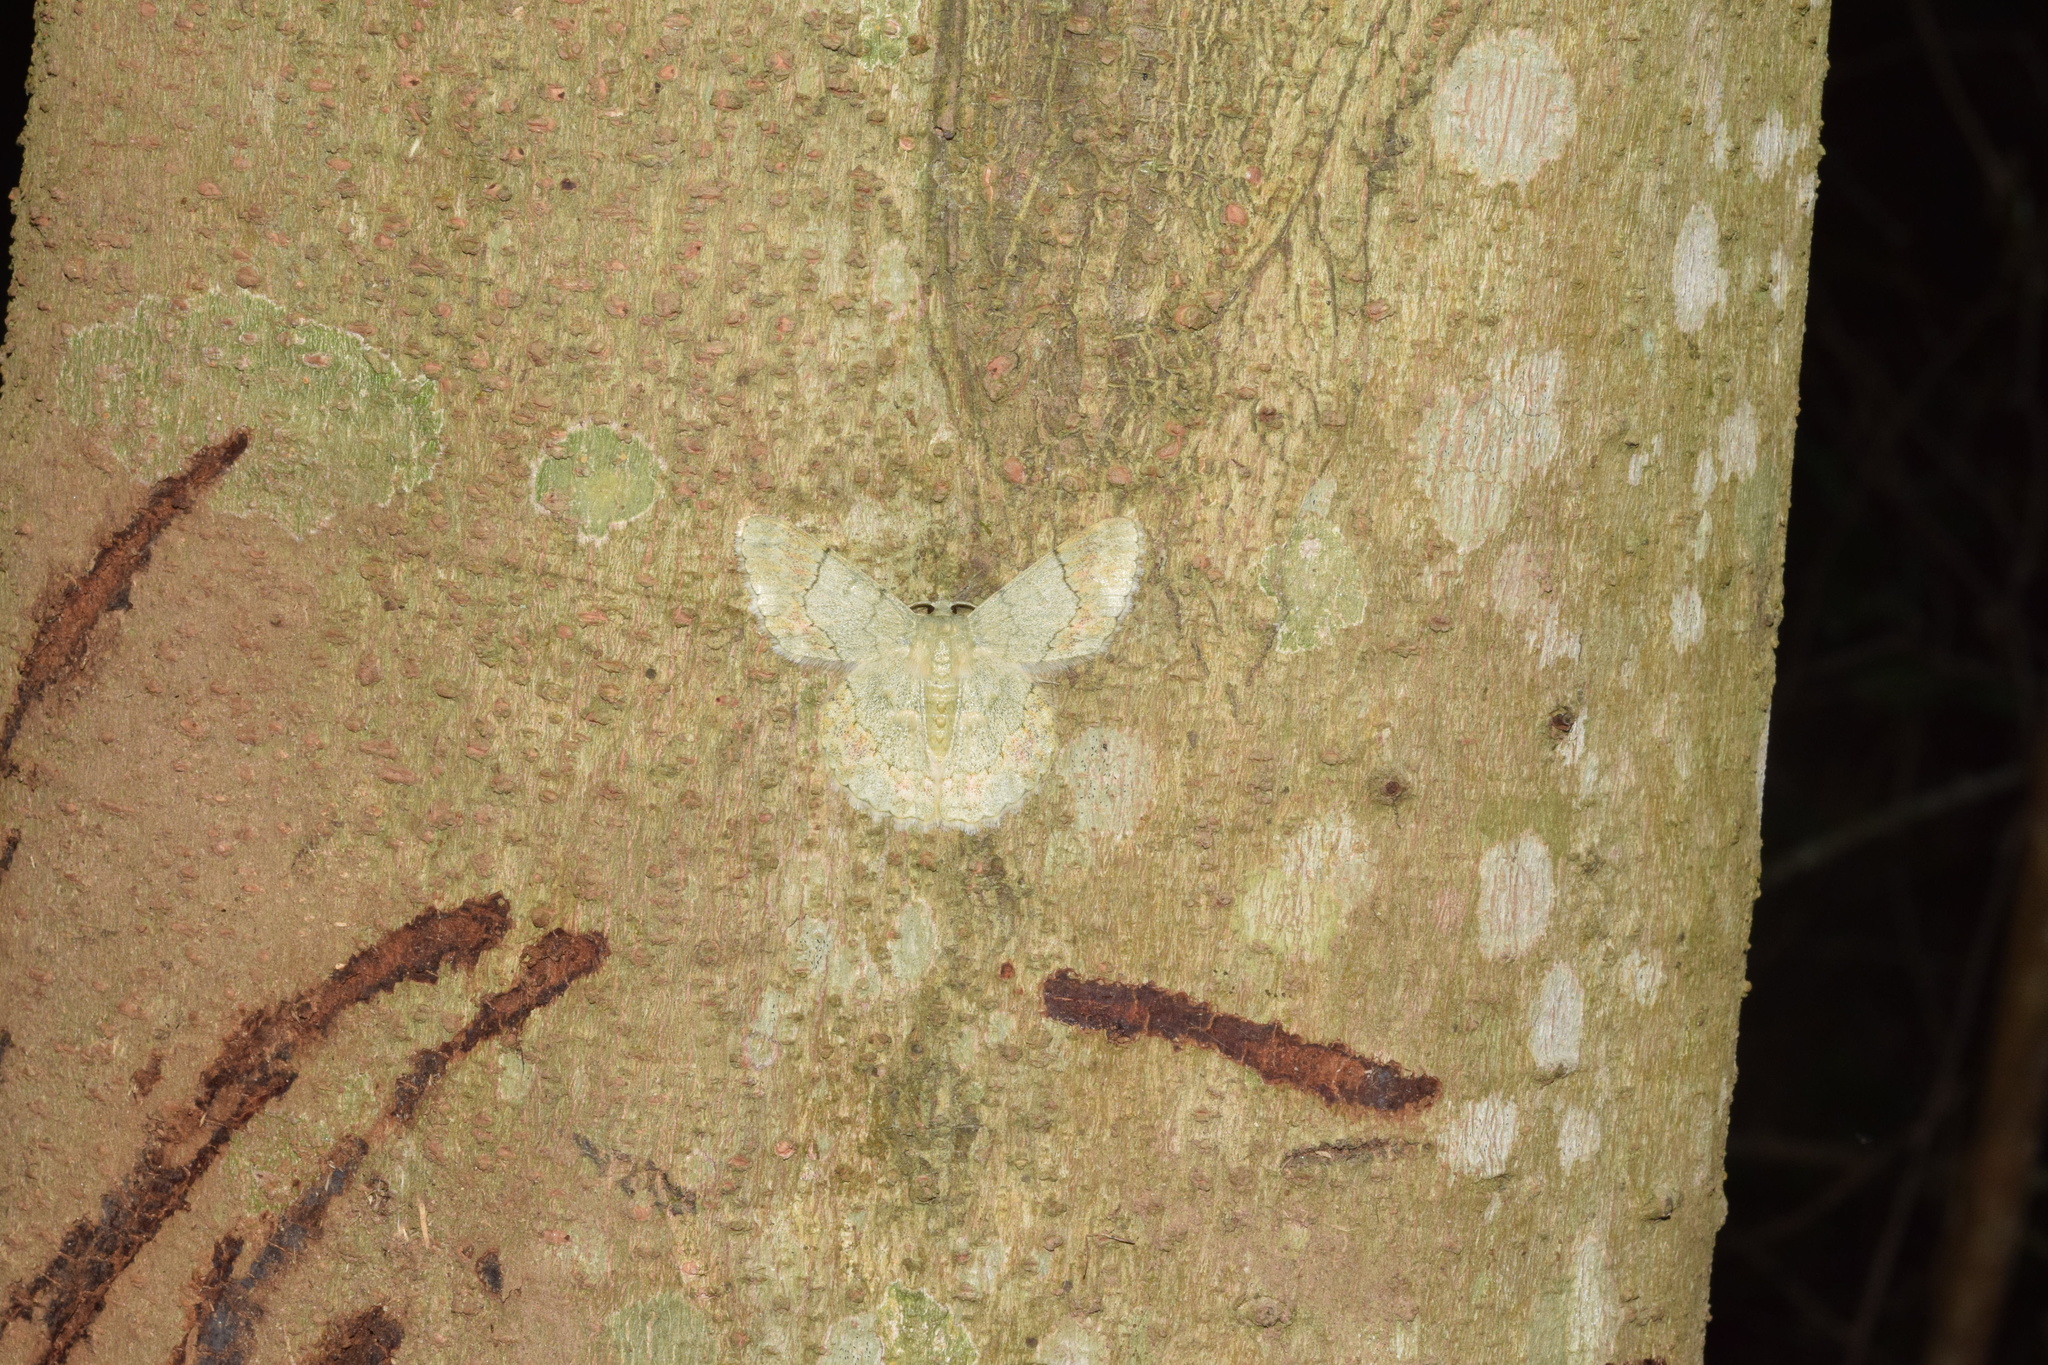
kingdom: Animalia
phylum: Arthropoda
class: Insecta
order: Lepidoptera
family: Geometridae
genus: Pingasa
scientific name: Pingasa ruginaria
